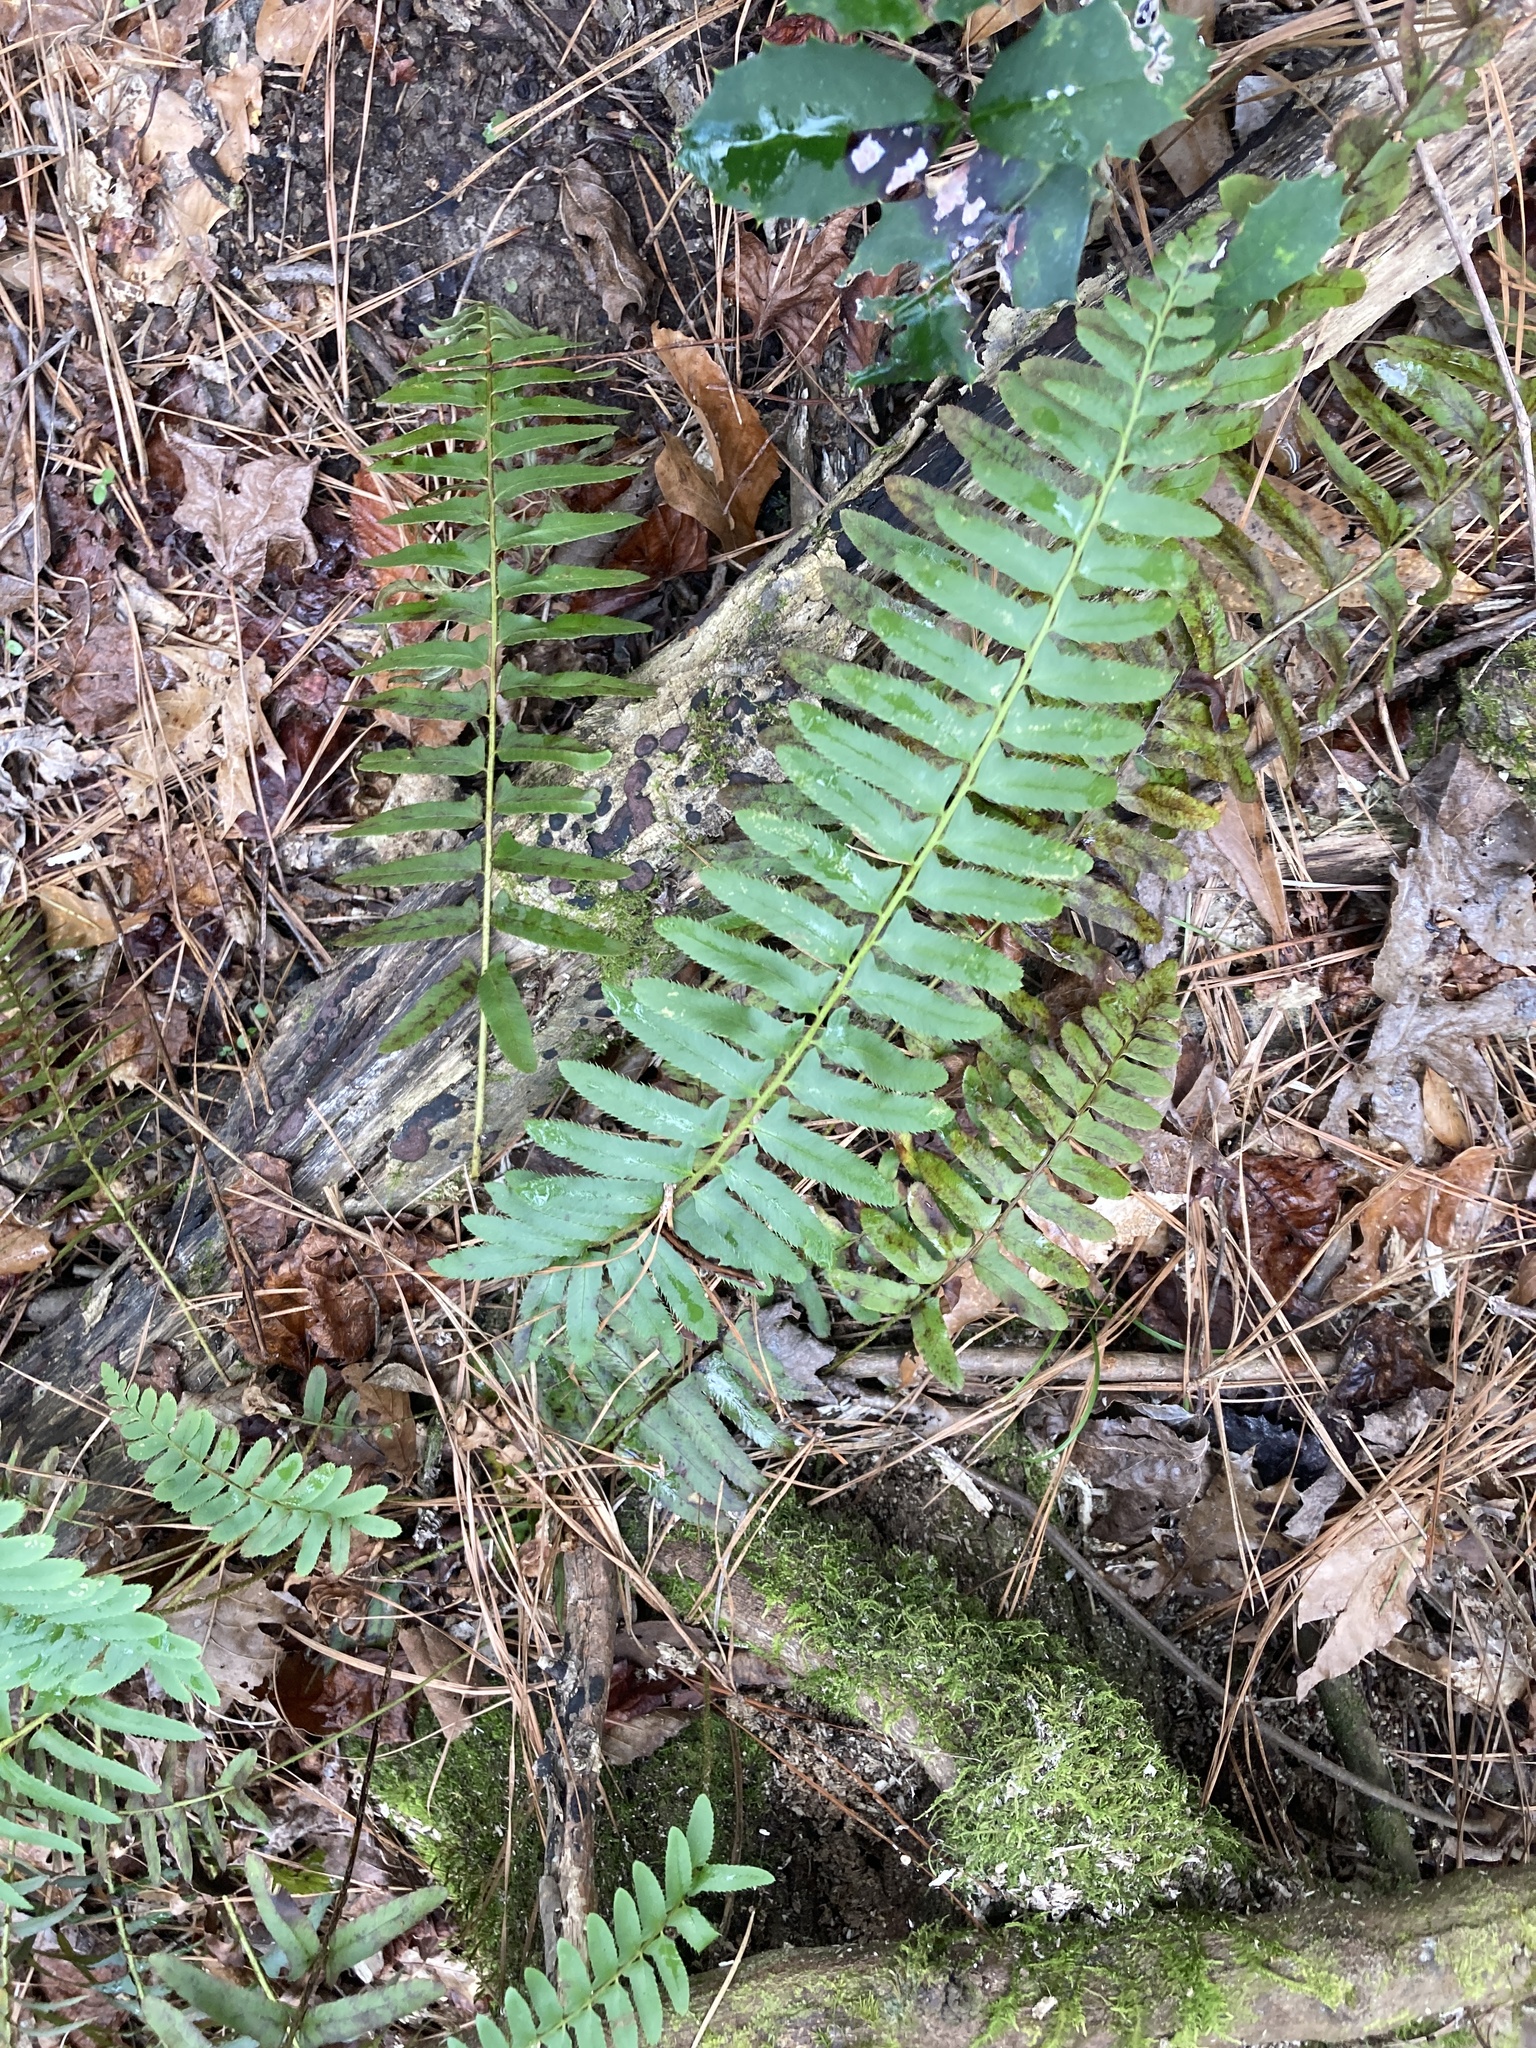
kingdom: Plantae
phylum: Tracheophyta
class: Polypodiopsida
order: Polypodiales
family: Dryopteridaceae
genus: Polystichum
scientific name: Polystichum acrostichoides
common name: Christmas fern
